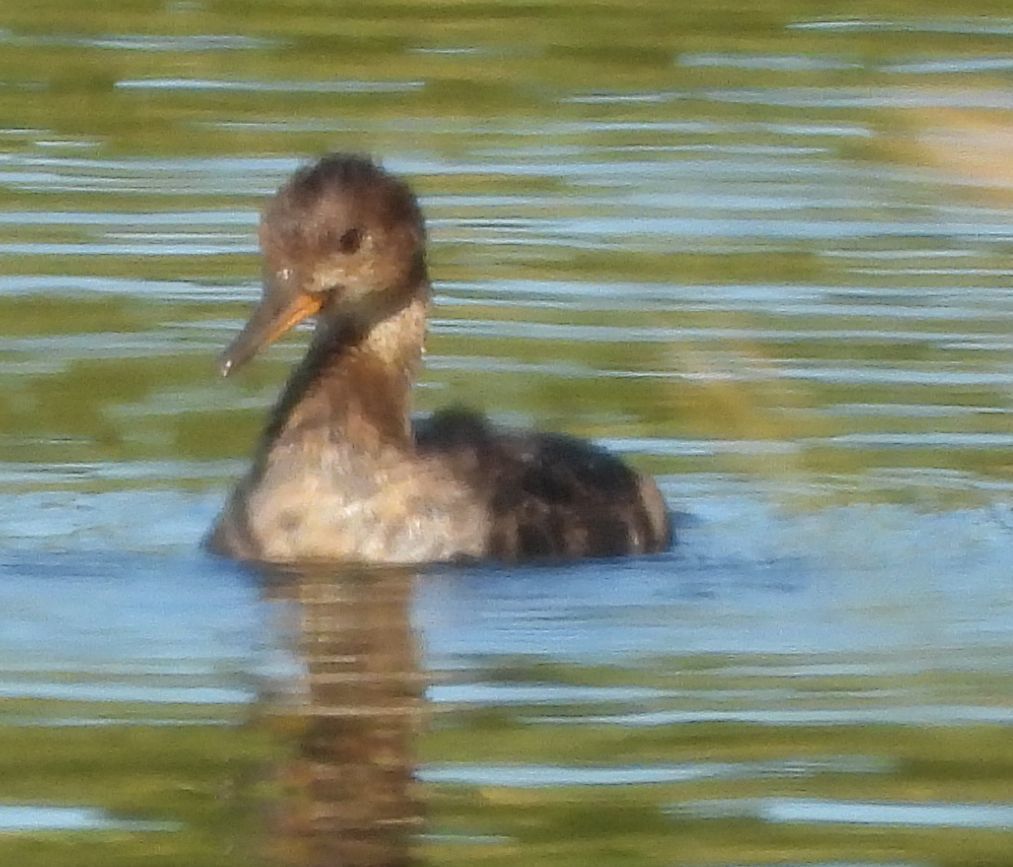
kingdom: Animalia
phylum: Chordata
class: Aves
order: Anseriformes
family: Anatidae
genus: Lophodytes
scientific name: Lophodytes cucullatus
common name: Hooded merganser
